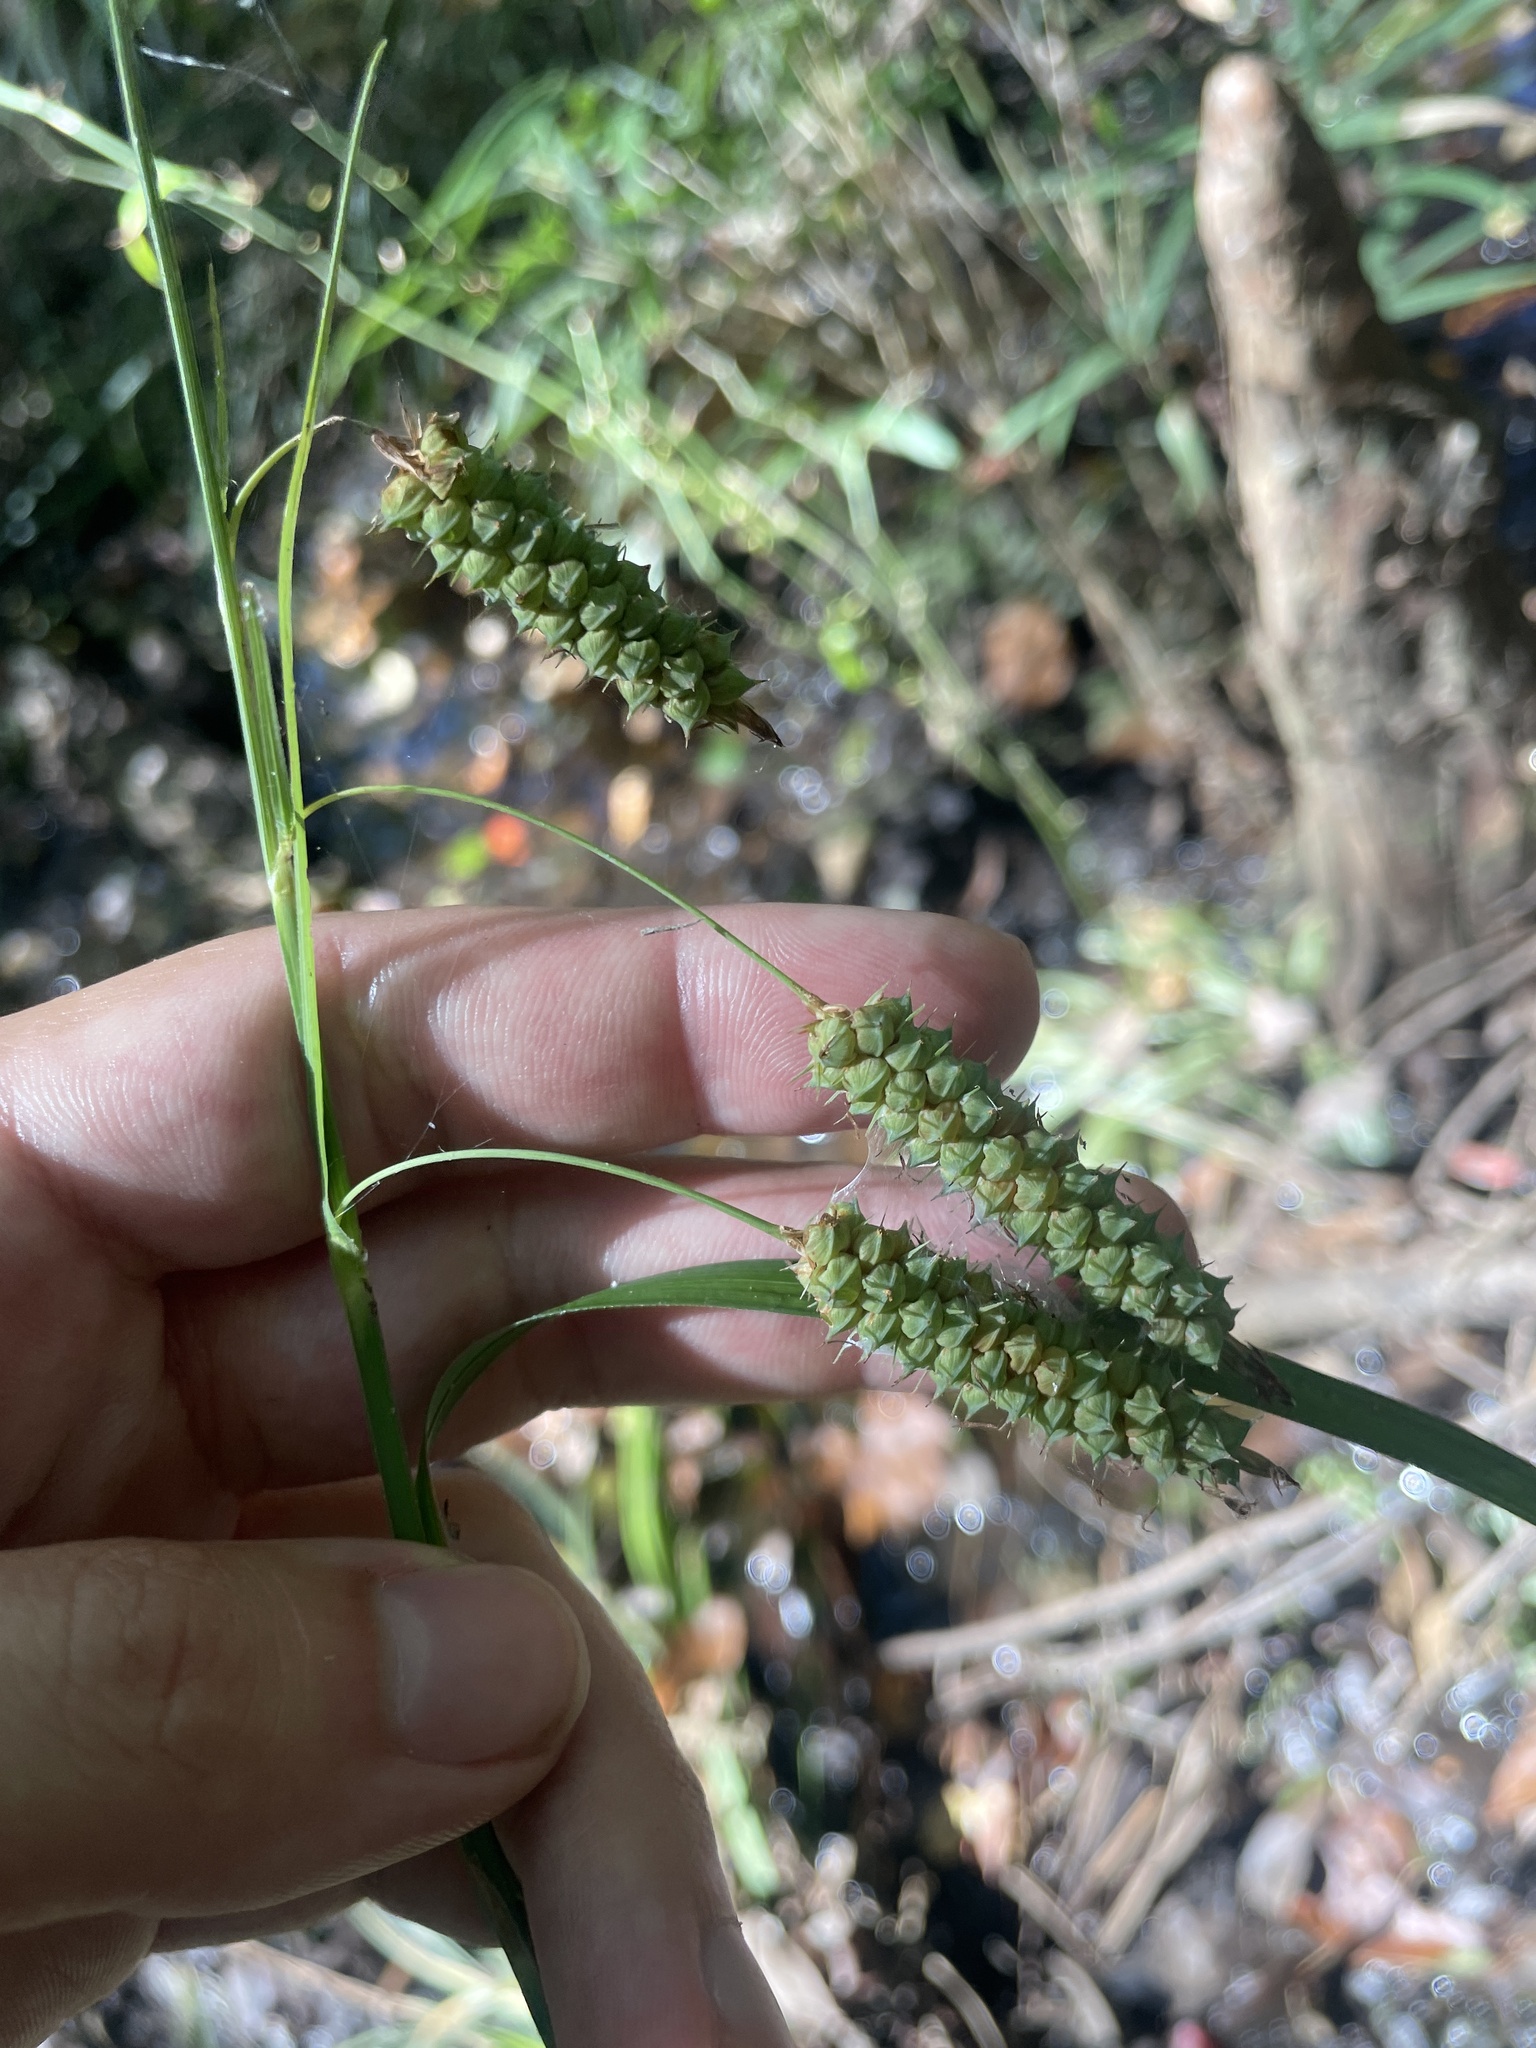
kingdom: Plantae
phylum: Tracheophyta
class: Liliopsida
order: Poales
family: Cyperaceae
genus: Carex
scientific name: Carex glaucescens
